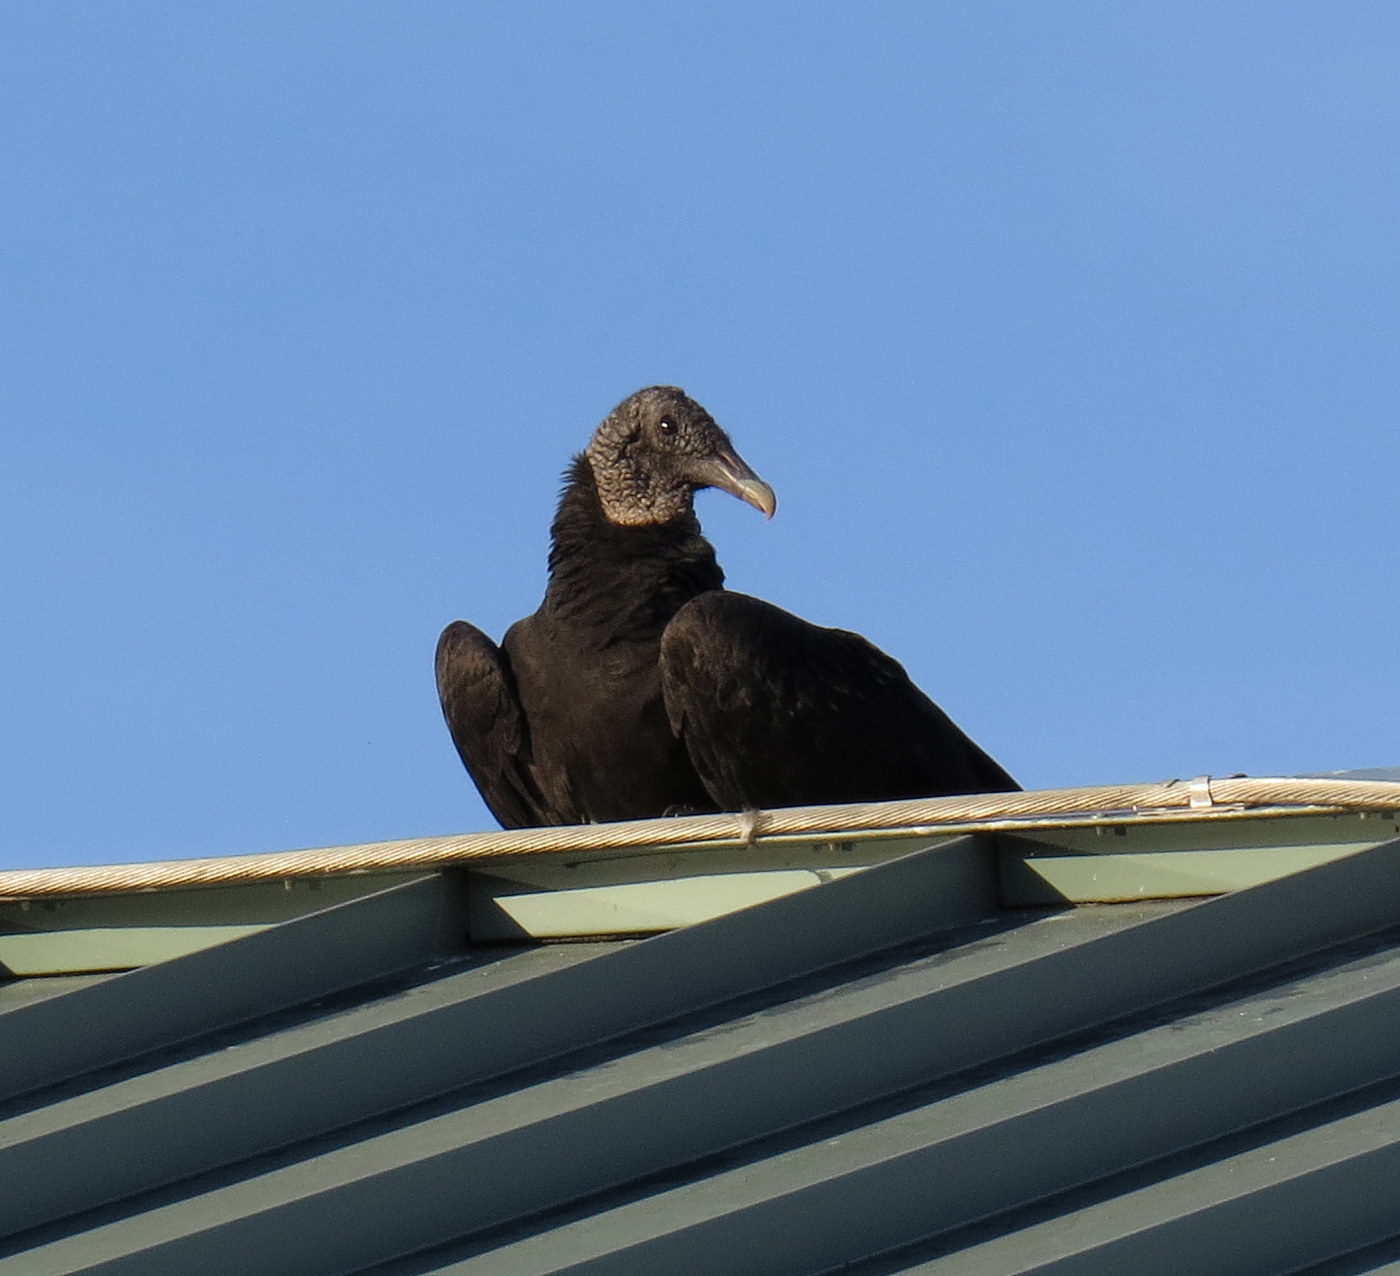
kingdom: Animalia
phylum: Chordata
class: Aves
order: Accipitriformes
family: Cathartidae
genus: Coragyps
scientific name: Coragyps atratus
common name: Black vulture
